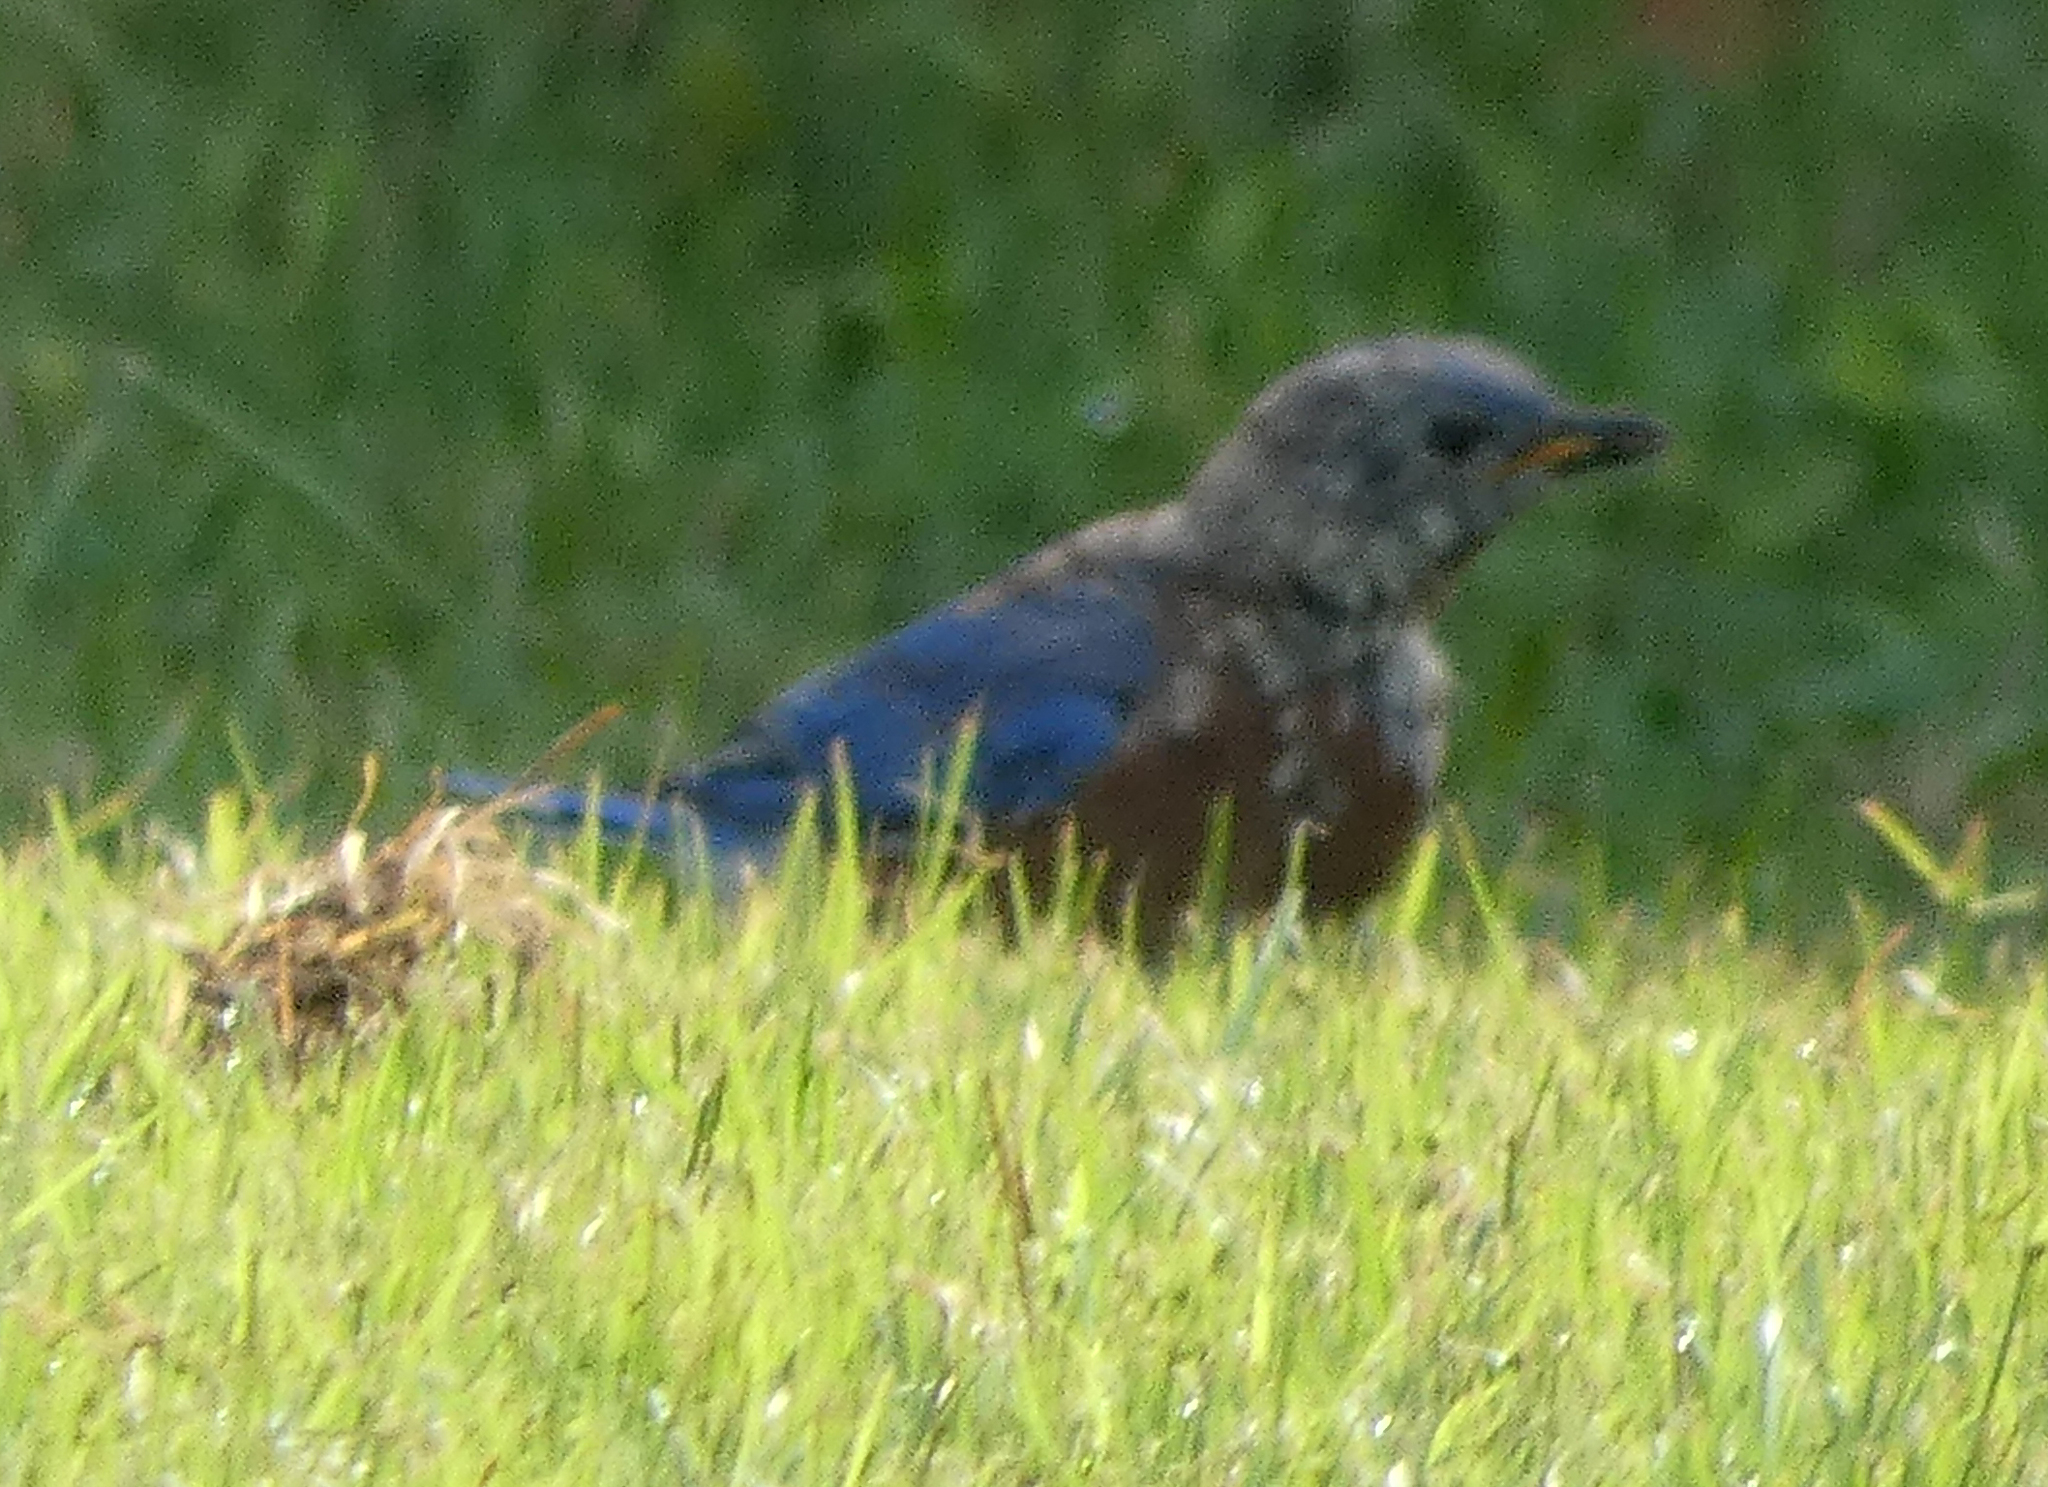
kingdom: Animalia
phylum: Chordata
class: Aves
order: Passeriformes
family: Turdidae
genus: Sialia
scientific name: Sialia sialis
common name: Eastern bluebird
